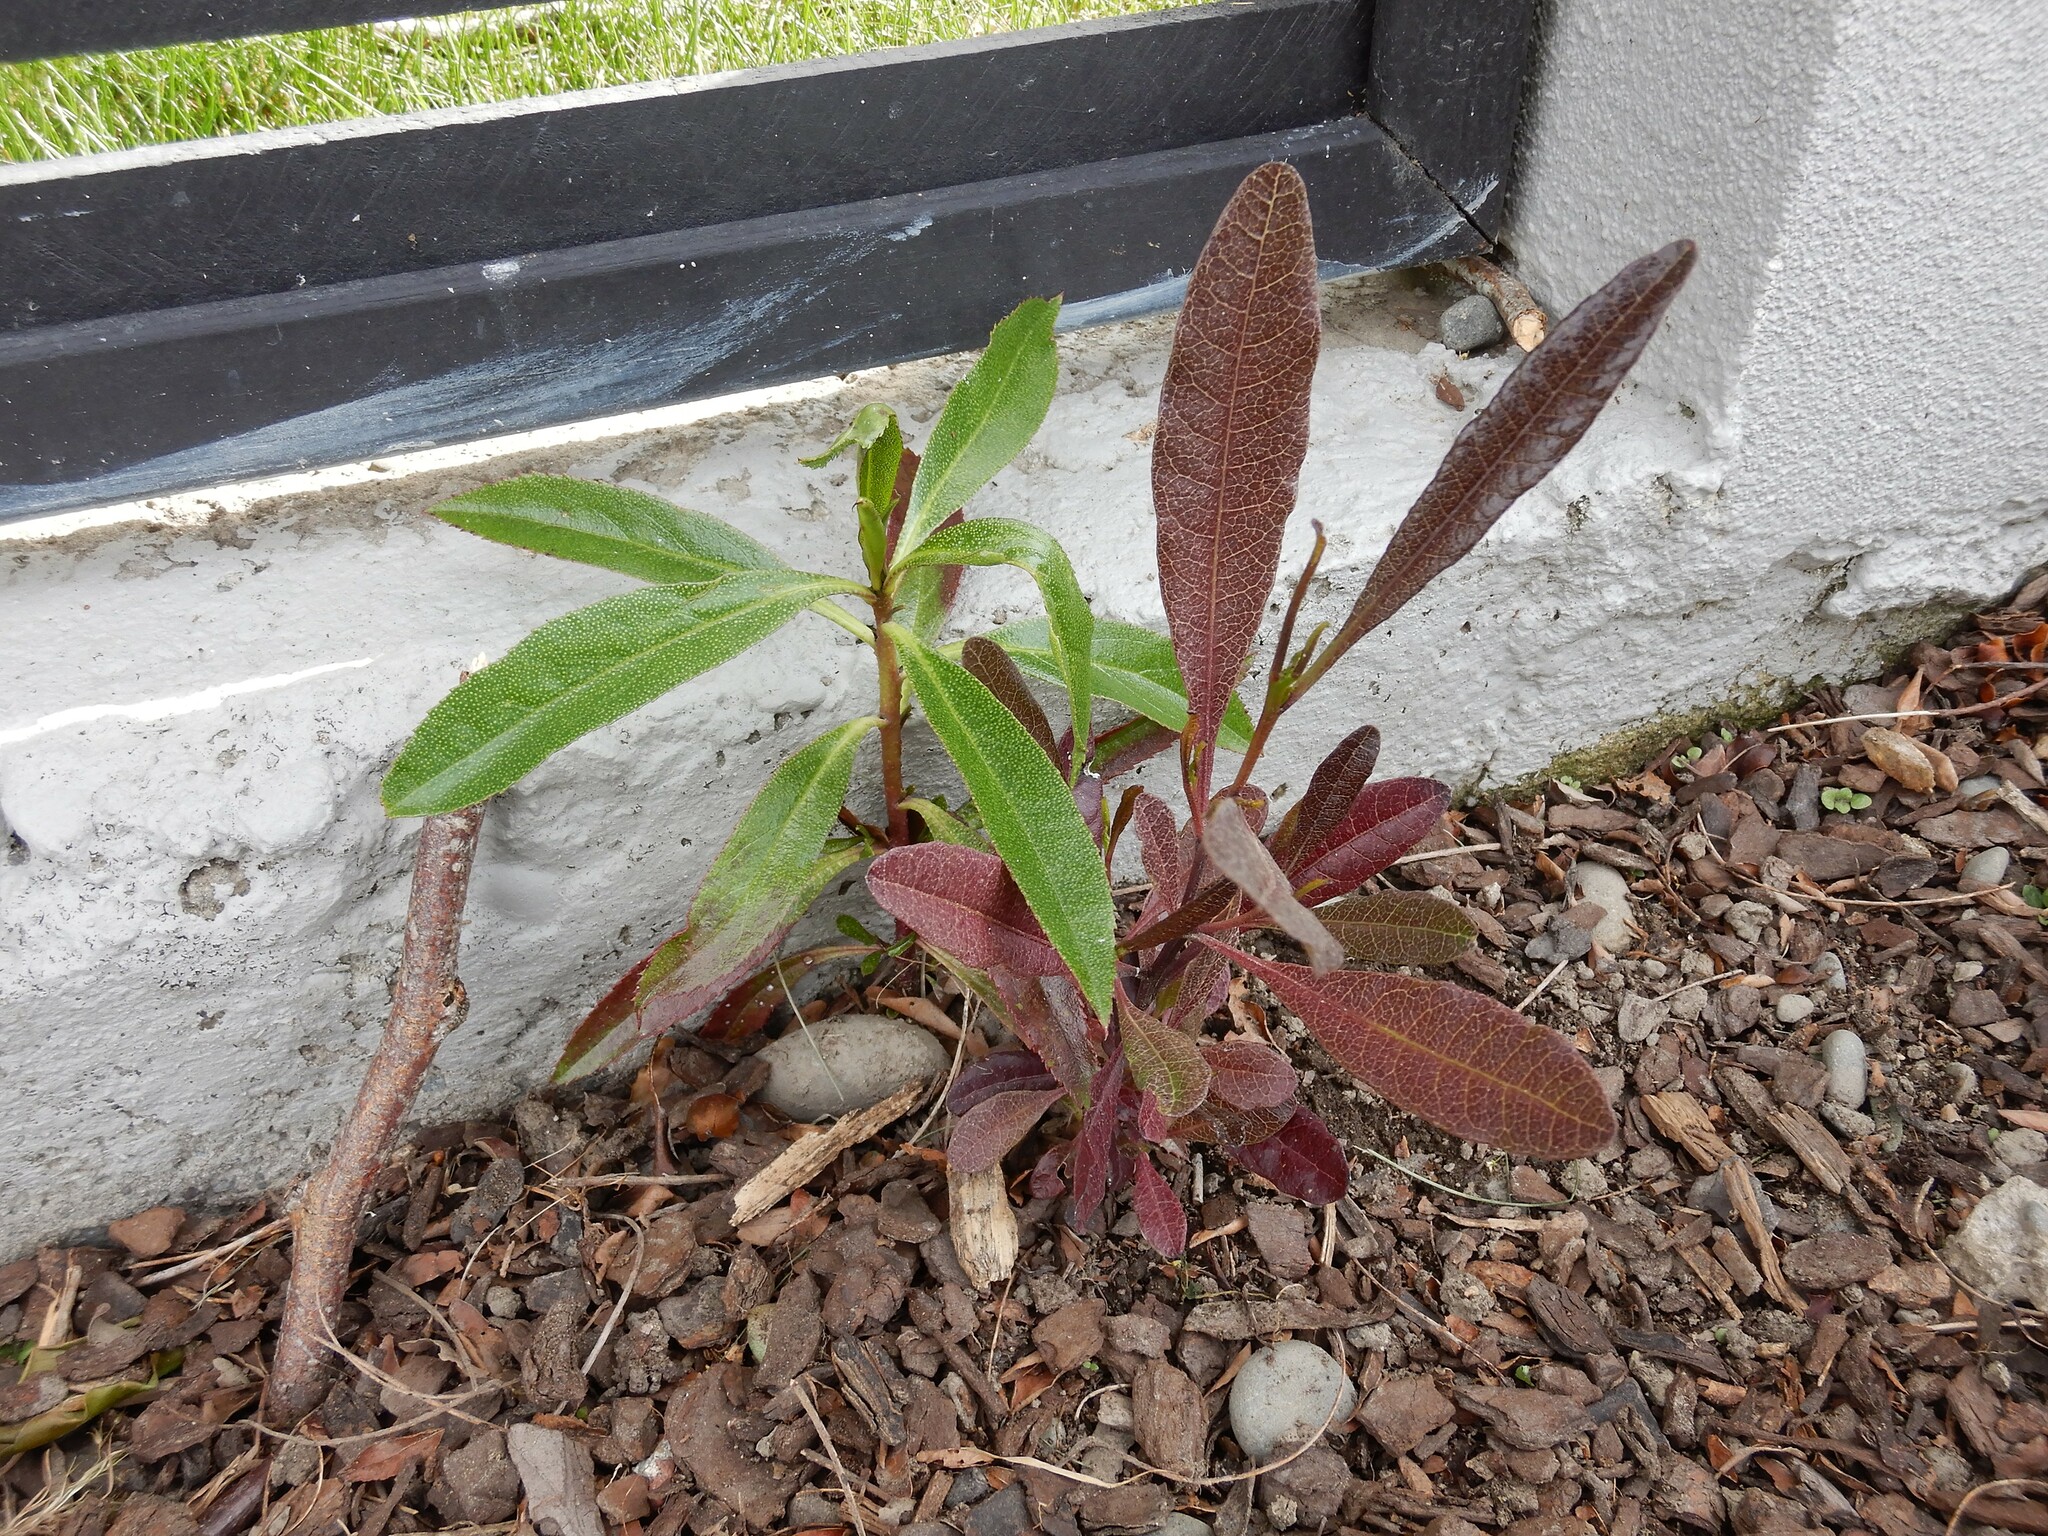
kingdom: Plantae
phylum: Tracheophyta
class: Magnoliopsida
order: Sapindales
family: Sapindaceae
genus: Dodonaea
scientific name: Dodonaea viscosa
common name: Hopbush
